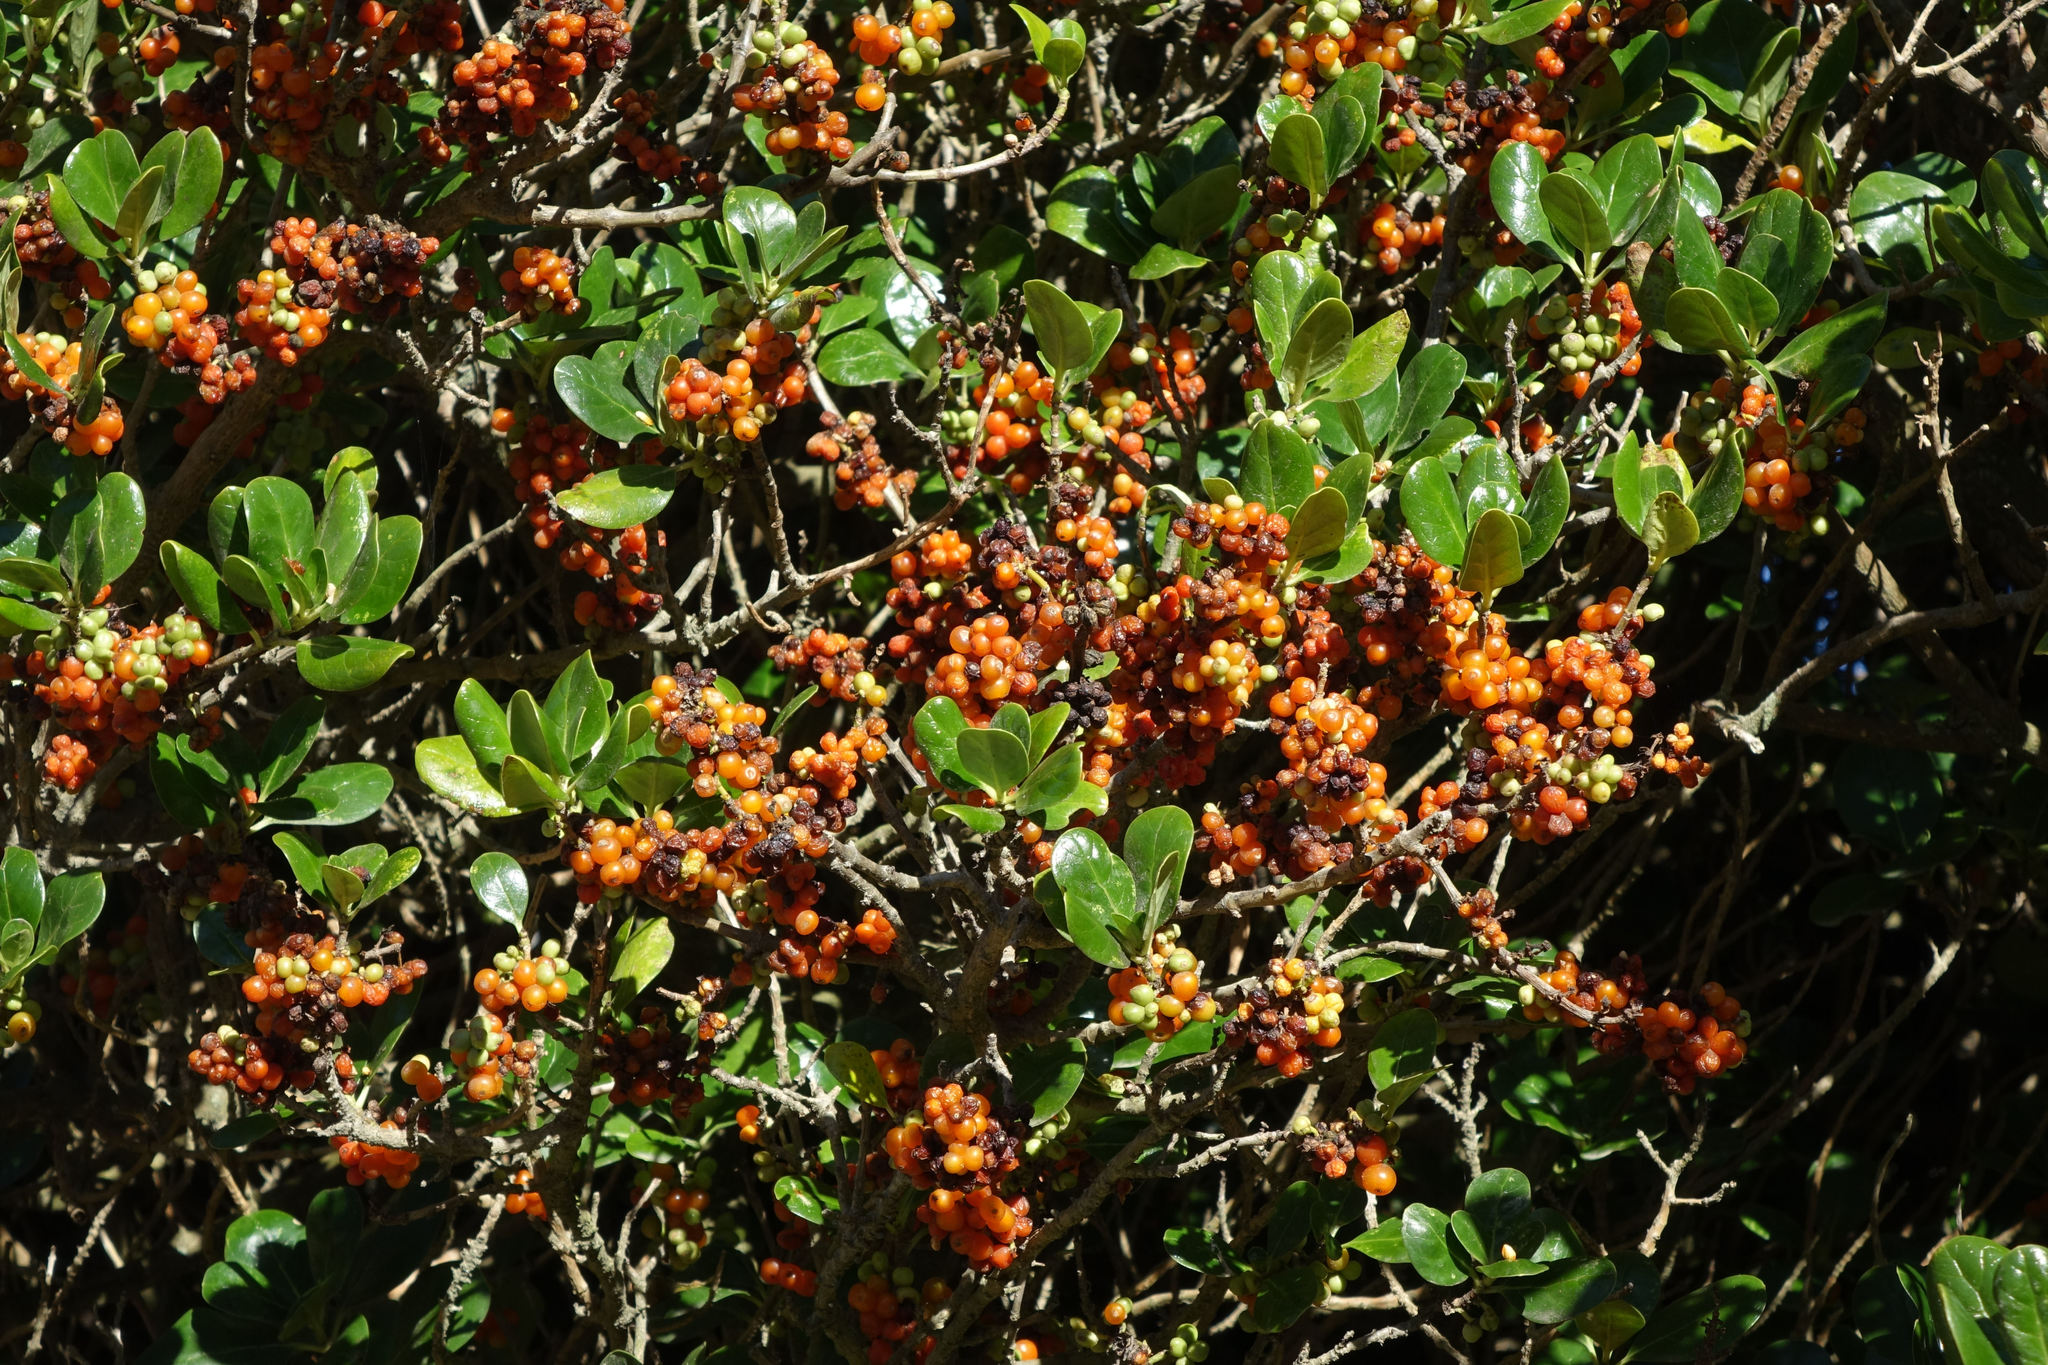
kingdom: Plantae
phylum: Tracheophyta
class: Magnoliopsida
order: Gentianales
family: Rubiaceae
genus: Coprosma
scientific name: Coprosma repens
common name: Tree bedstraw
